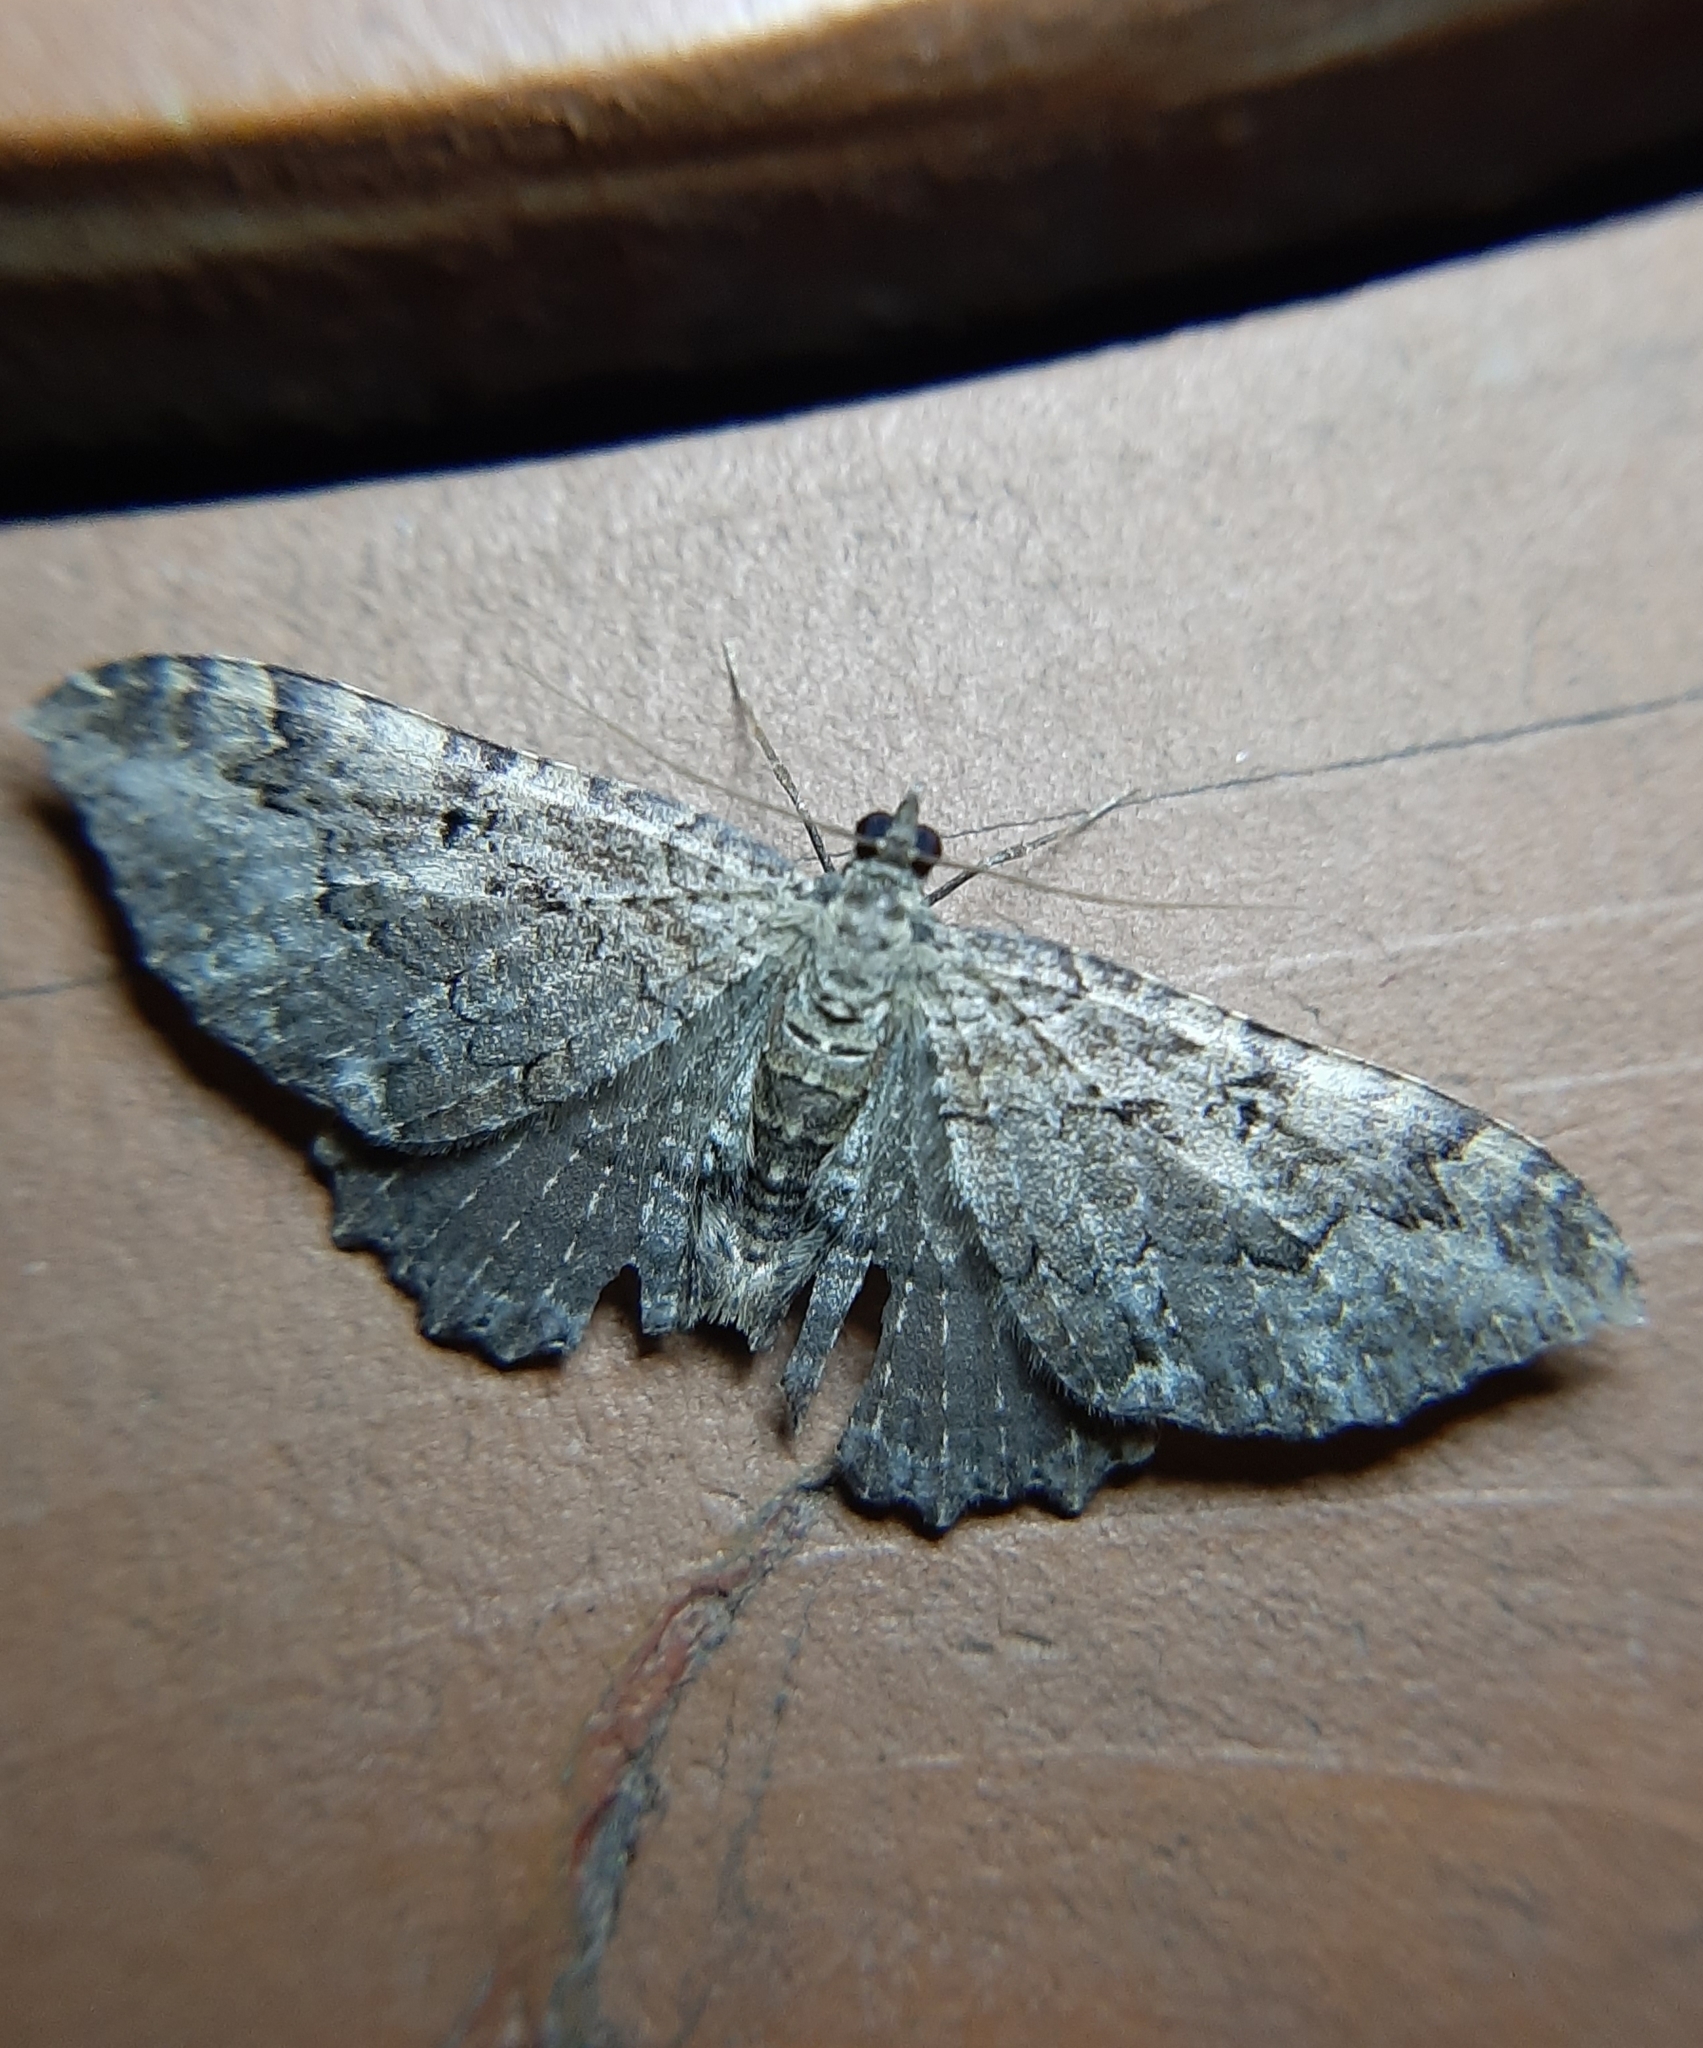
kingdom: Animalia
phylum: Arthropoda
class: Insecta
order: Lepidoptera
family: Geometridae
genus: Rheumaptera
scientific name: Rheumaptera
